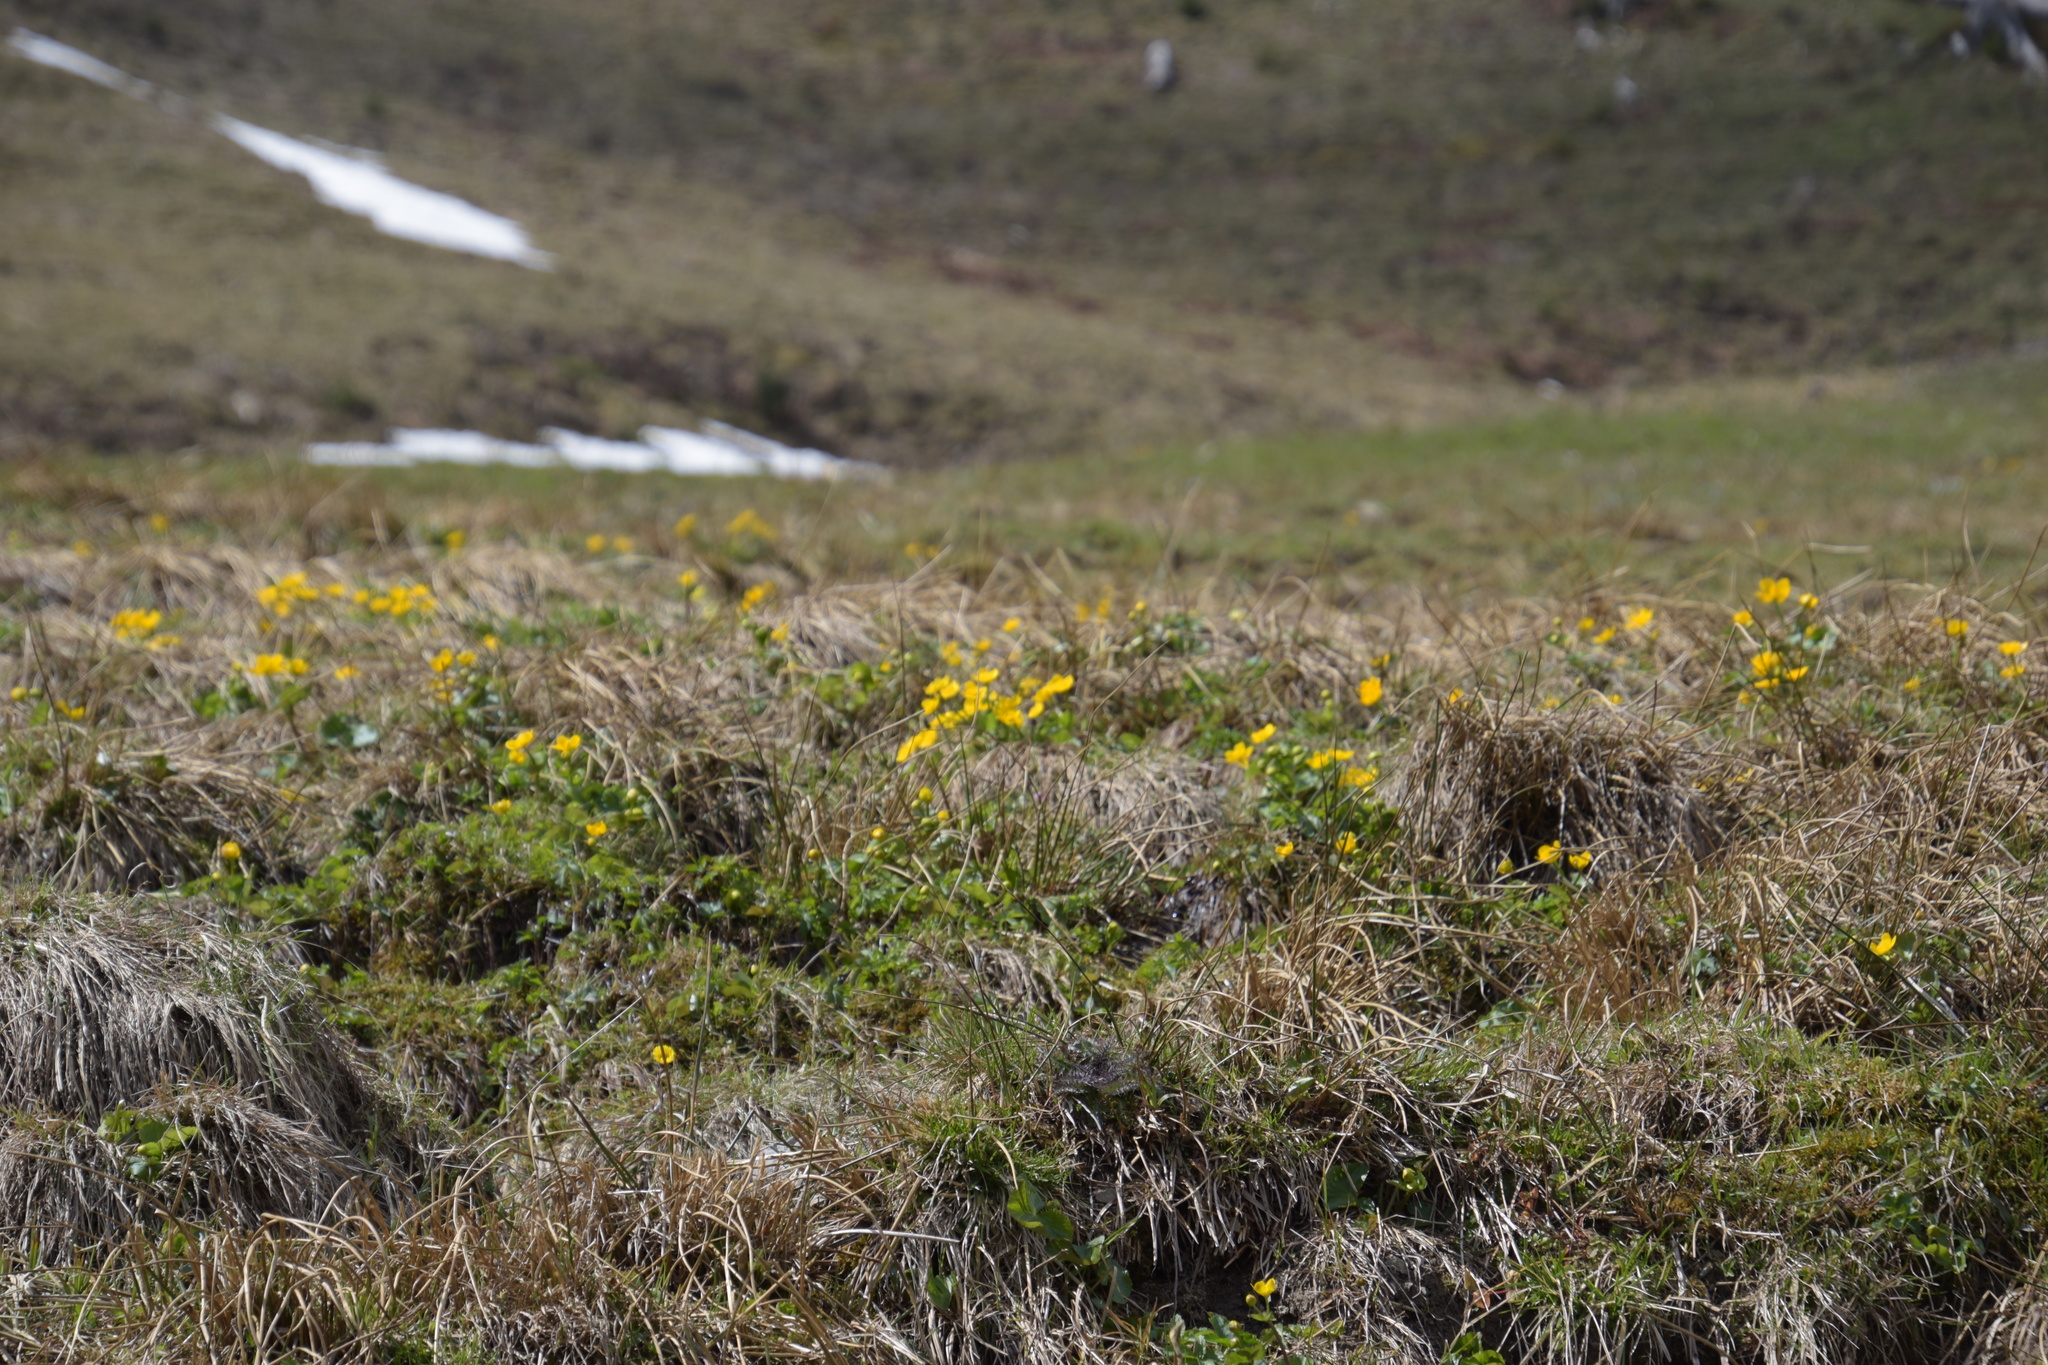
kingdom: Plantae
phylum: Tracheophyta
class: Magnoliopsida
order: Ranunculales
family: Ranunculaceae
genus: Caltha
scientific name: Caltha palustris
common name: Marsh marigold
